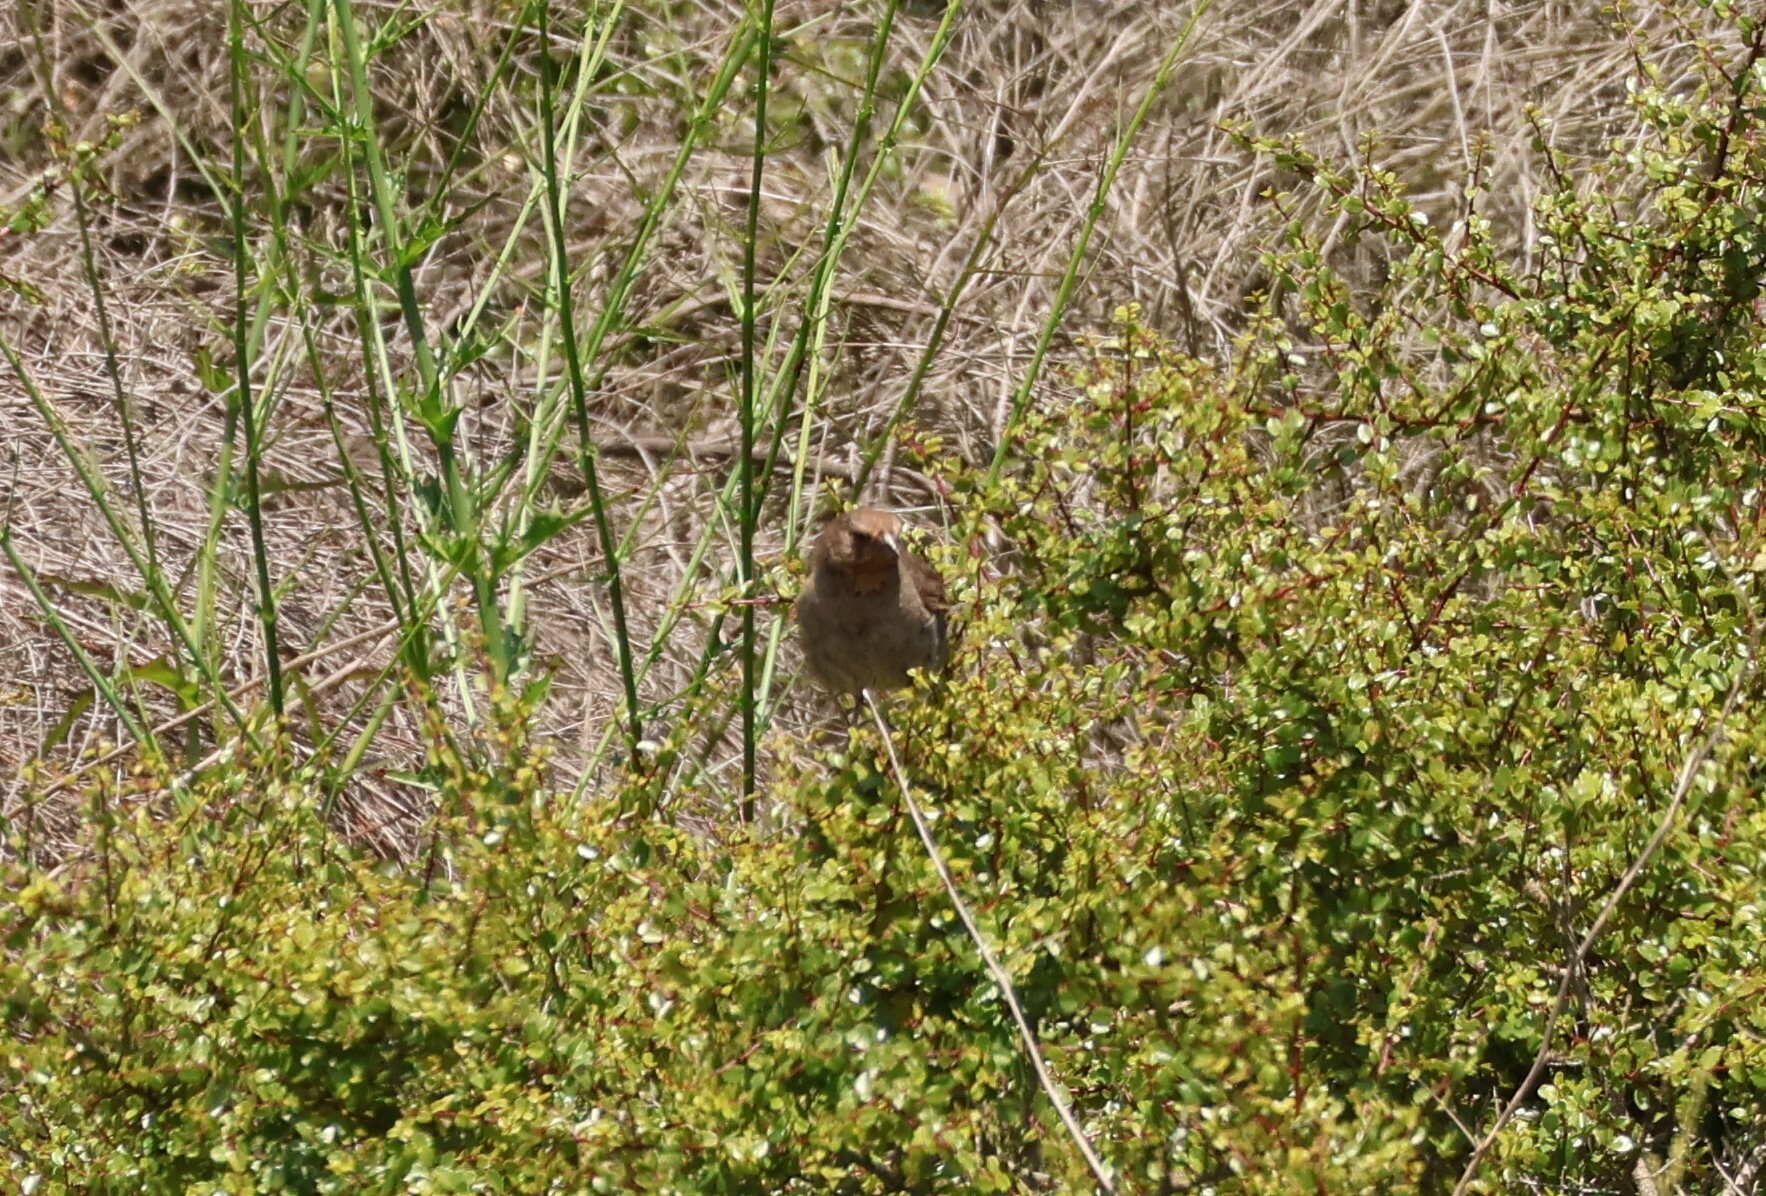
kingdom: Animalia
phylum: Chordata
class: Aves
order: Passeriformes
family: Passerellidae
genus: Melozone
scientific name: Melozone crissalis
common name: California towhee
